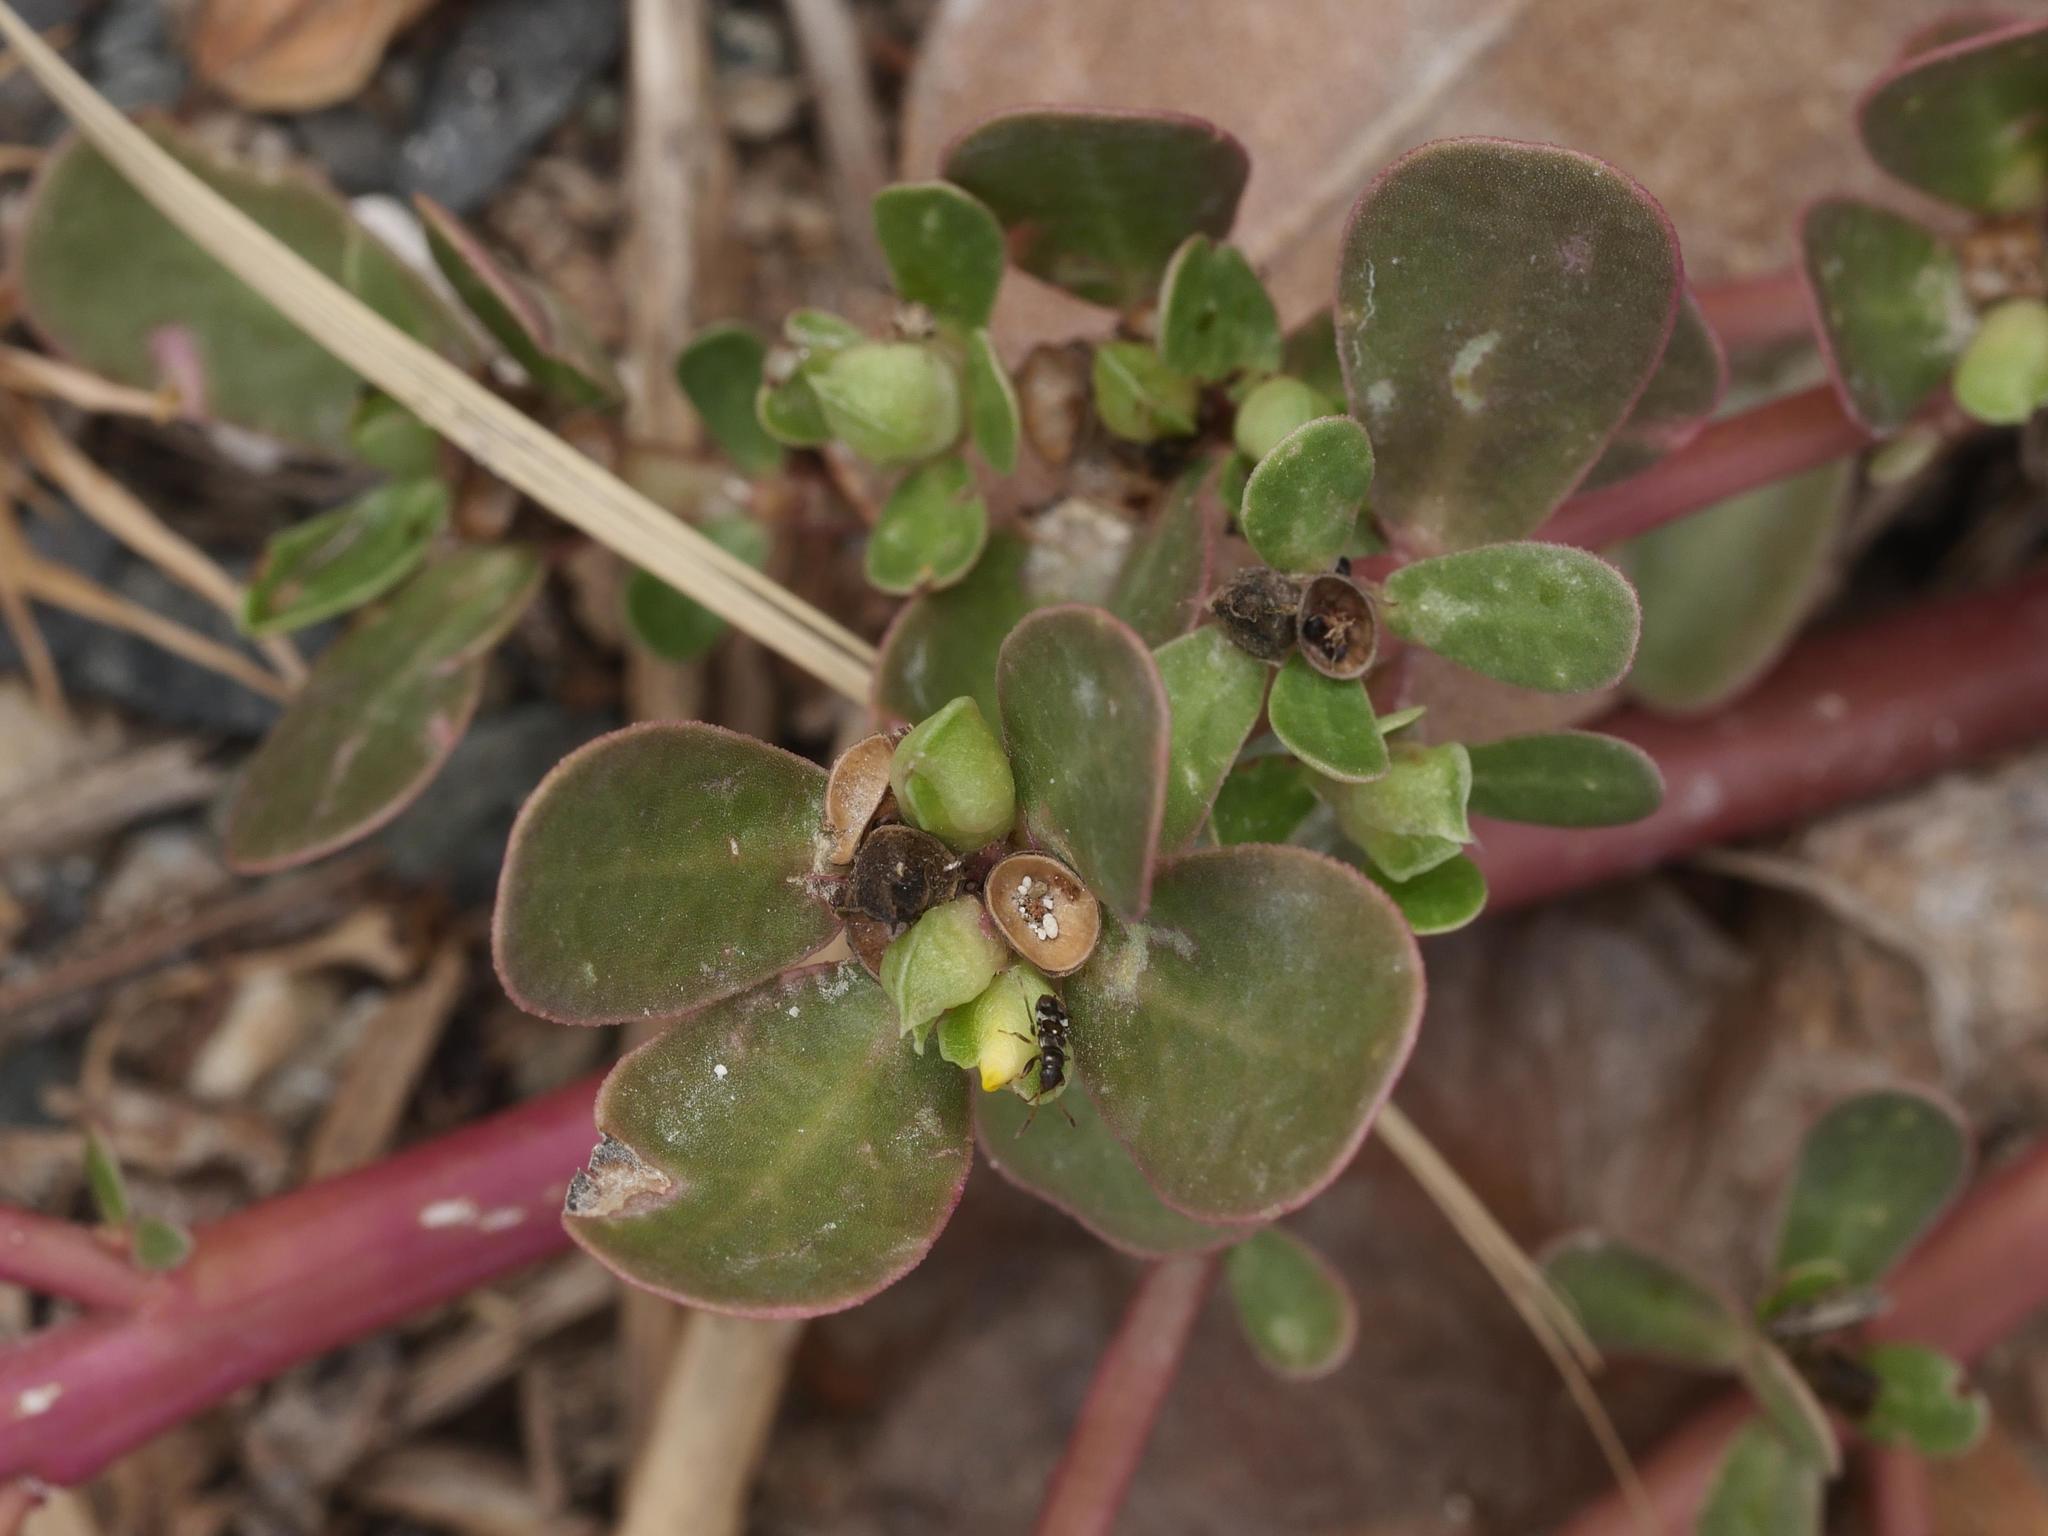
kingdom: Plantae
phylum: Tracheophyta
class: Magnoliopsida
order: Caryophyllales
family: Portulacaceae
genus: Portulaca
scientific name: Portulaca oleracea
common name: Common purslane
